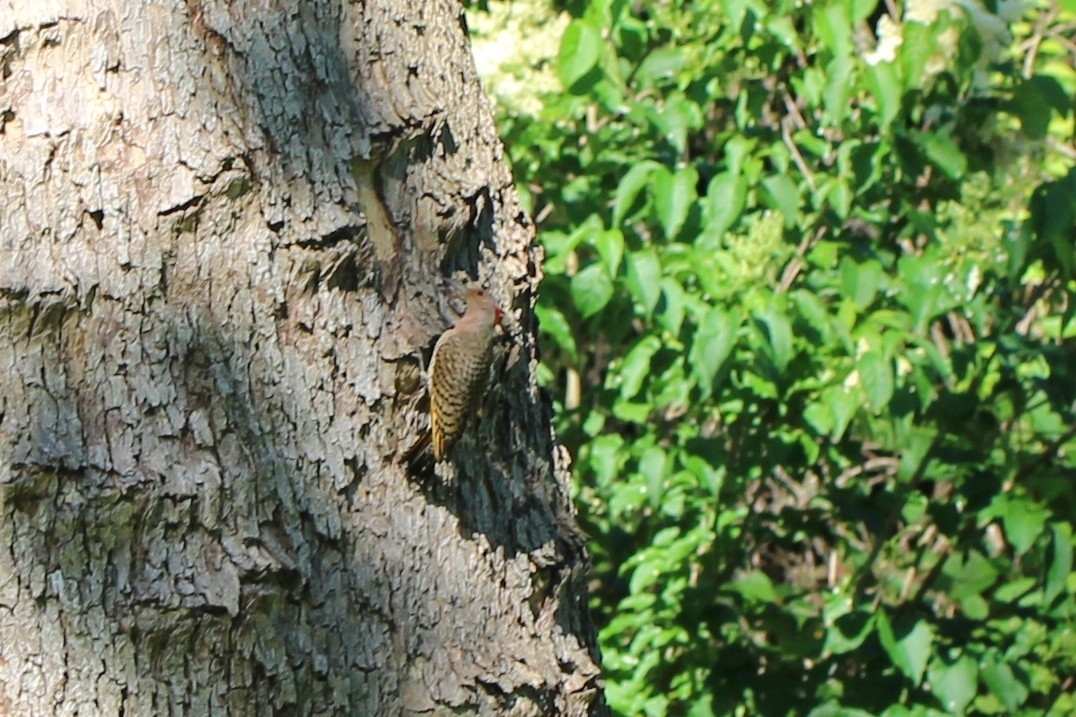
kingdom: Animalia
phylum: Chordata
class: Aves
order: Piciformes
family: Picidae
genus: Colaptes
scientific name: Colaptes auratus
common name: Northern flicker
